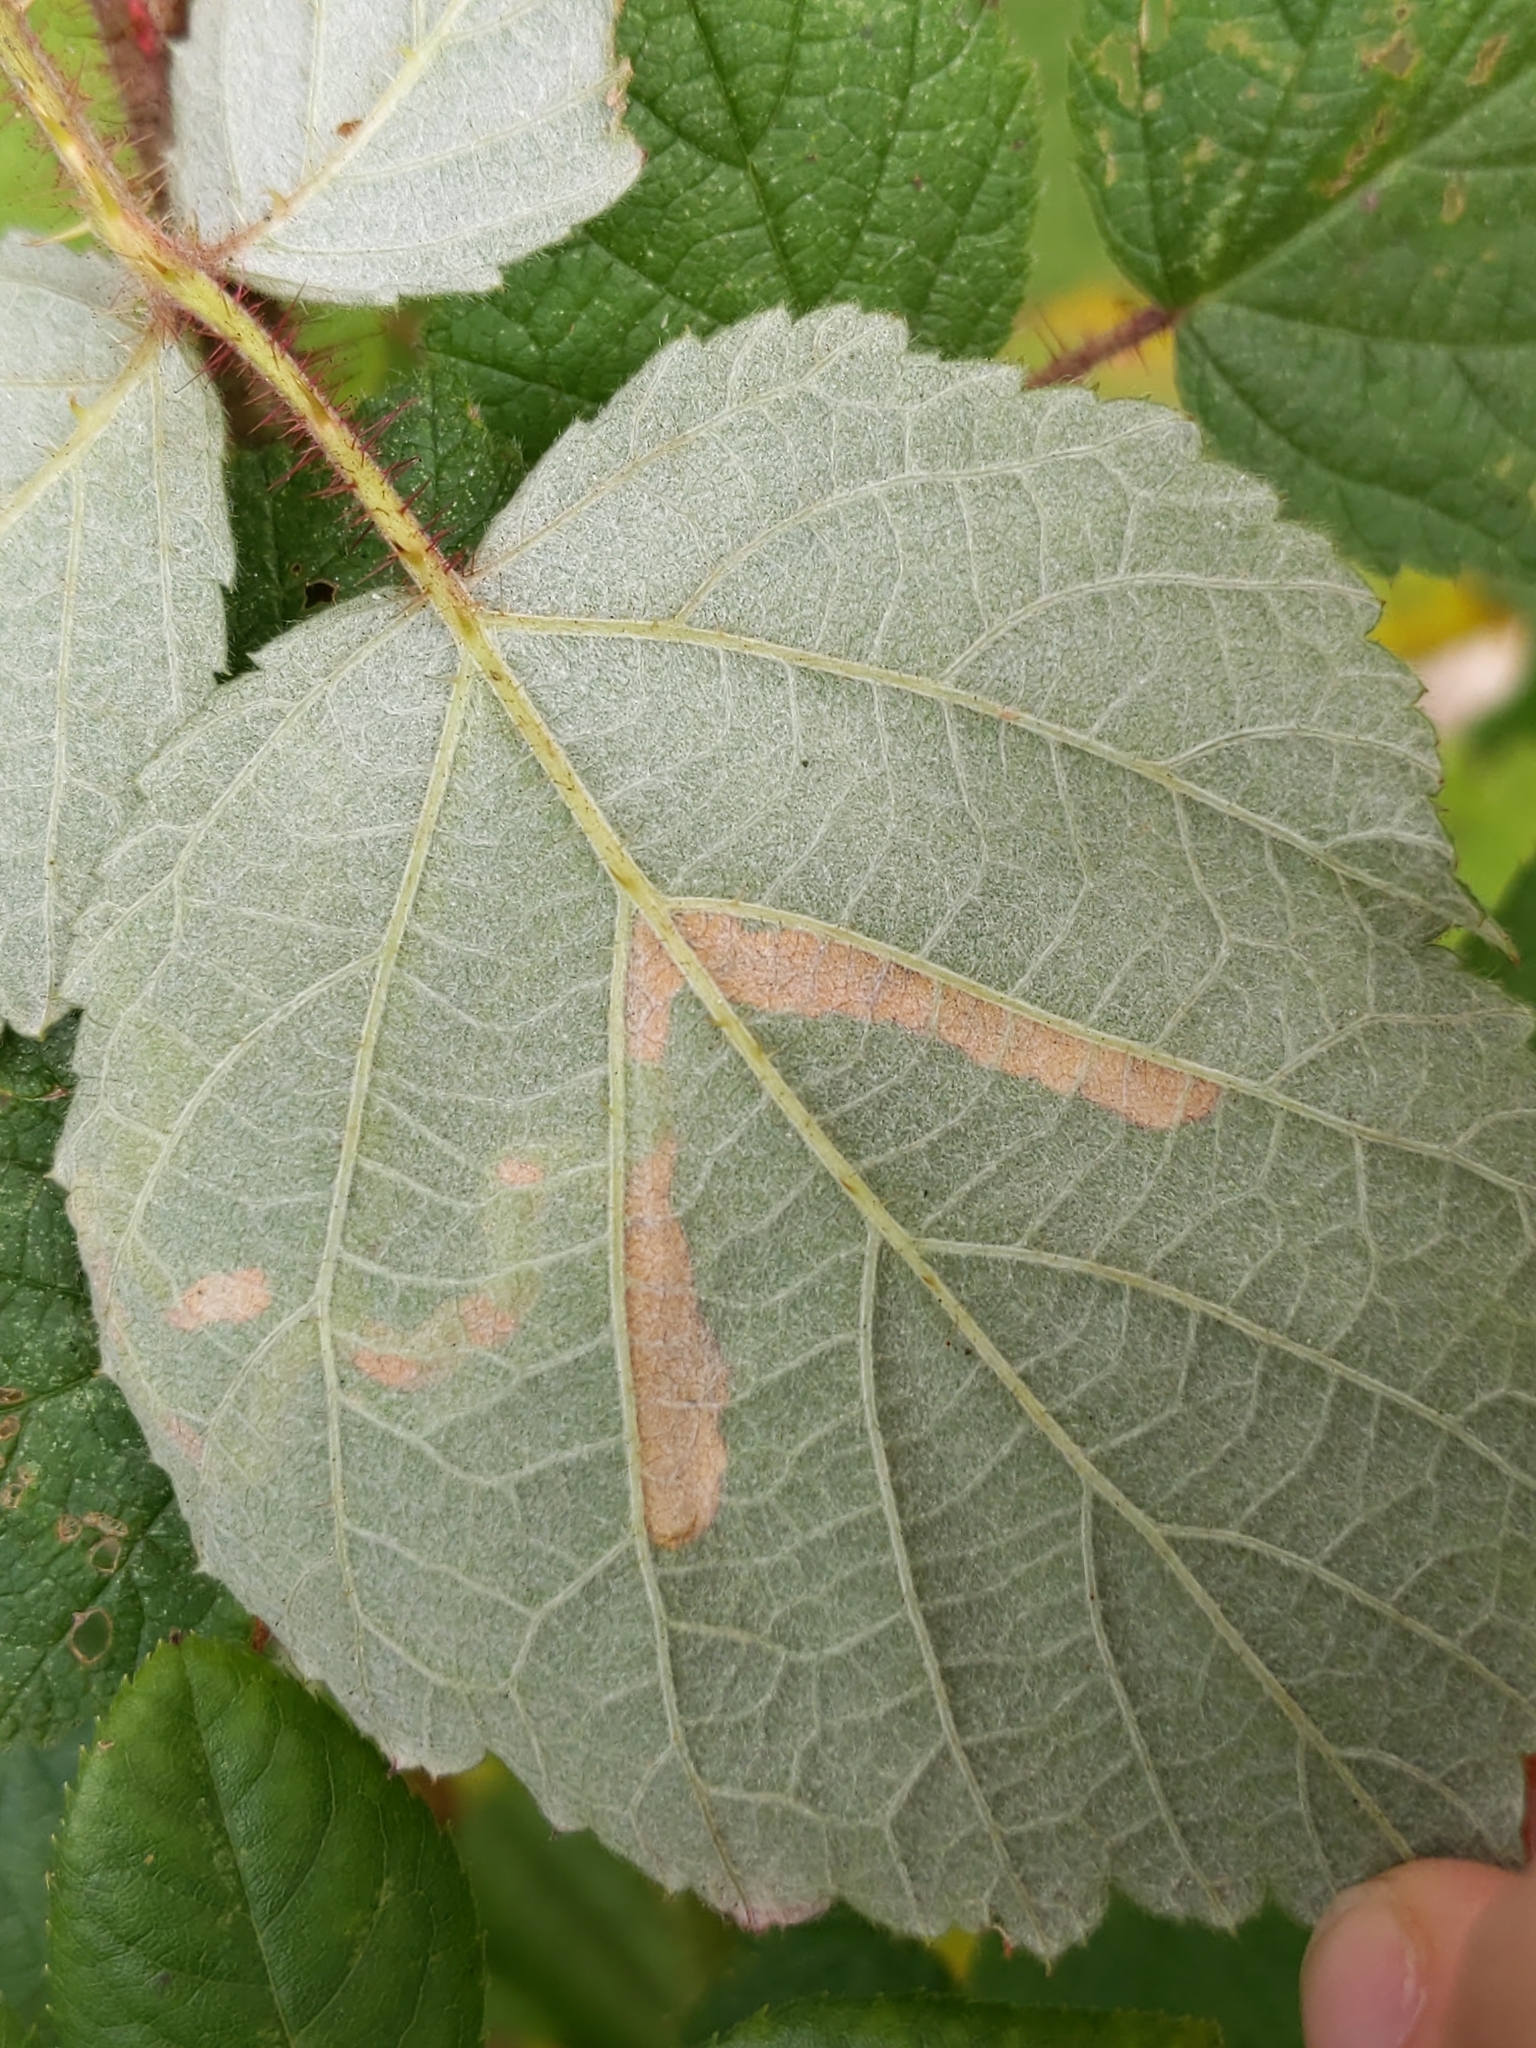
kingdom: Animalia
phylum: Arthropoda
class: Insecta
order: Diptera
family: Agromyzidae
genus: Agromyza
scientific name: Agromyza vockerothi
